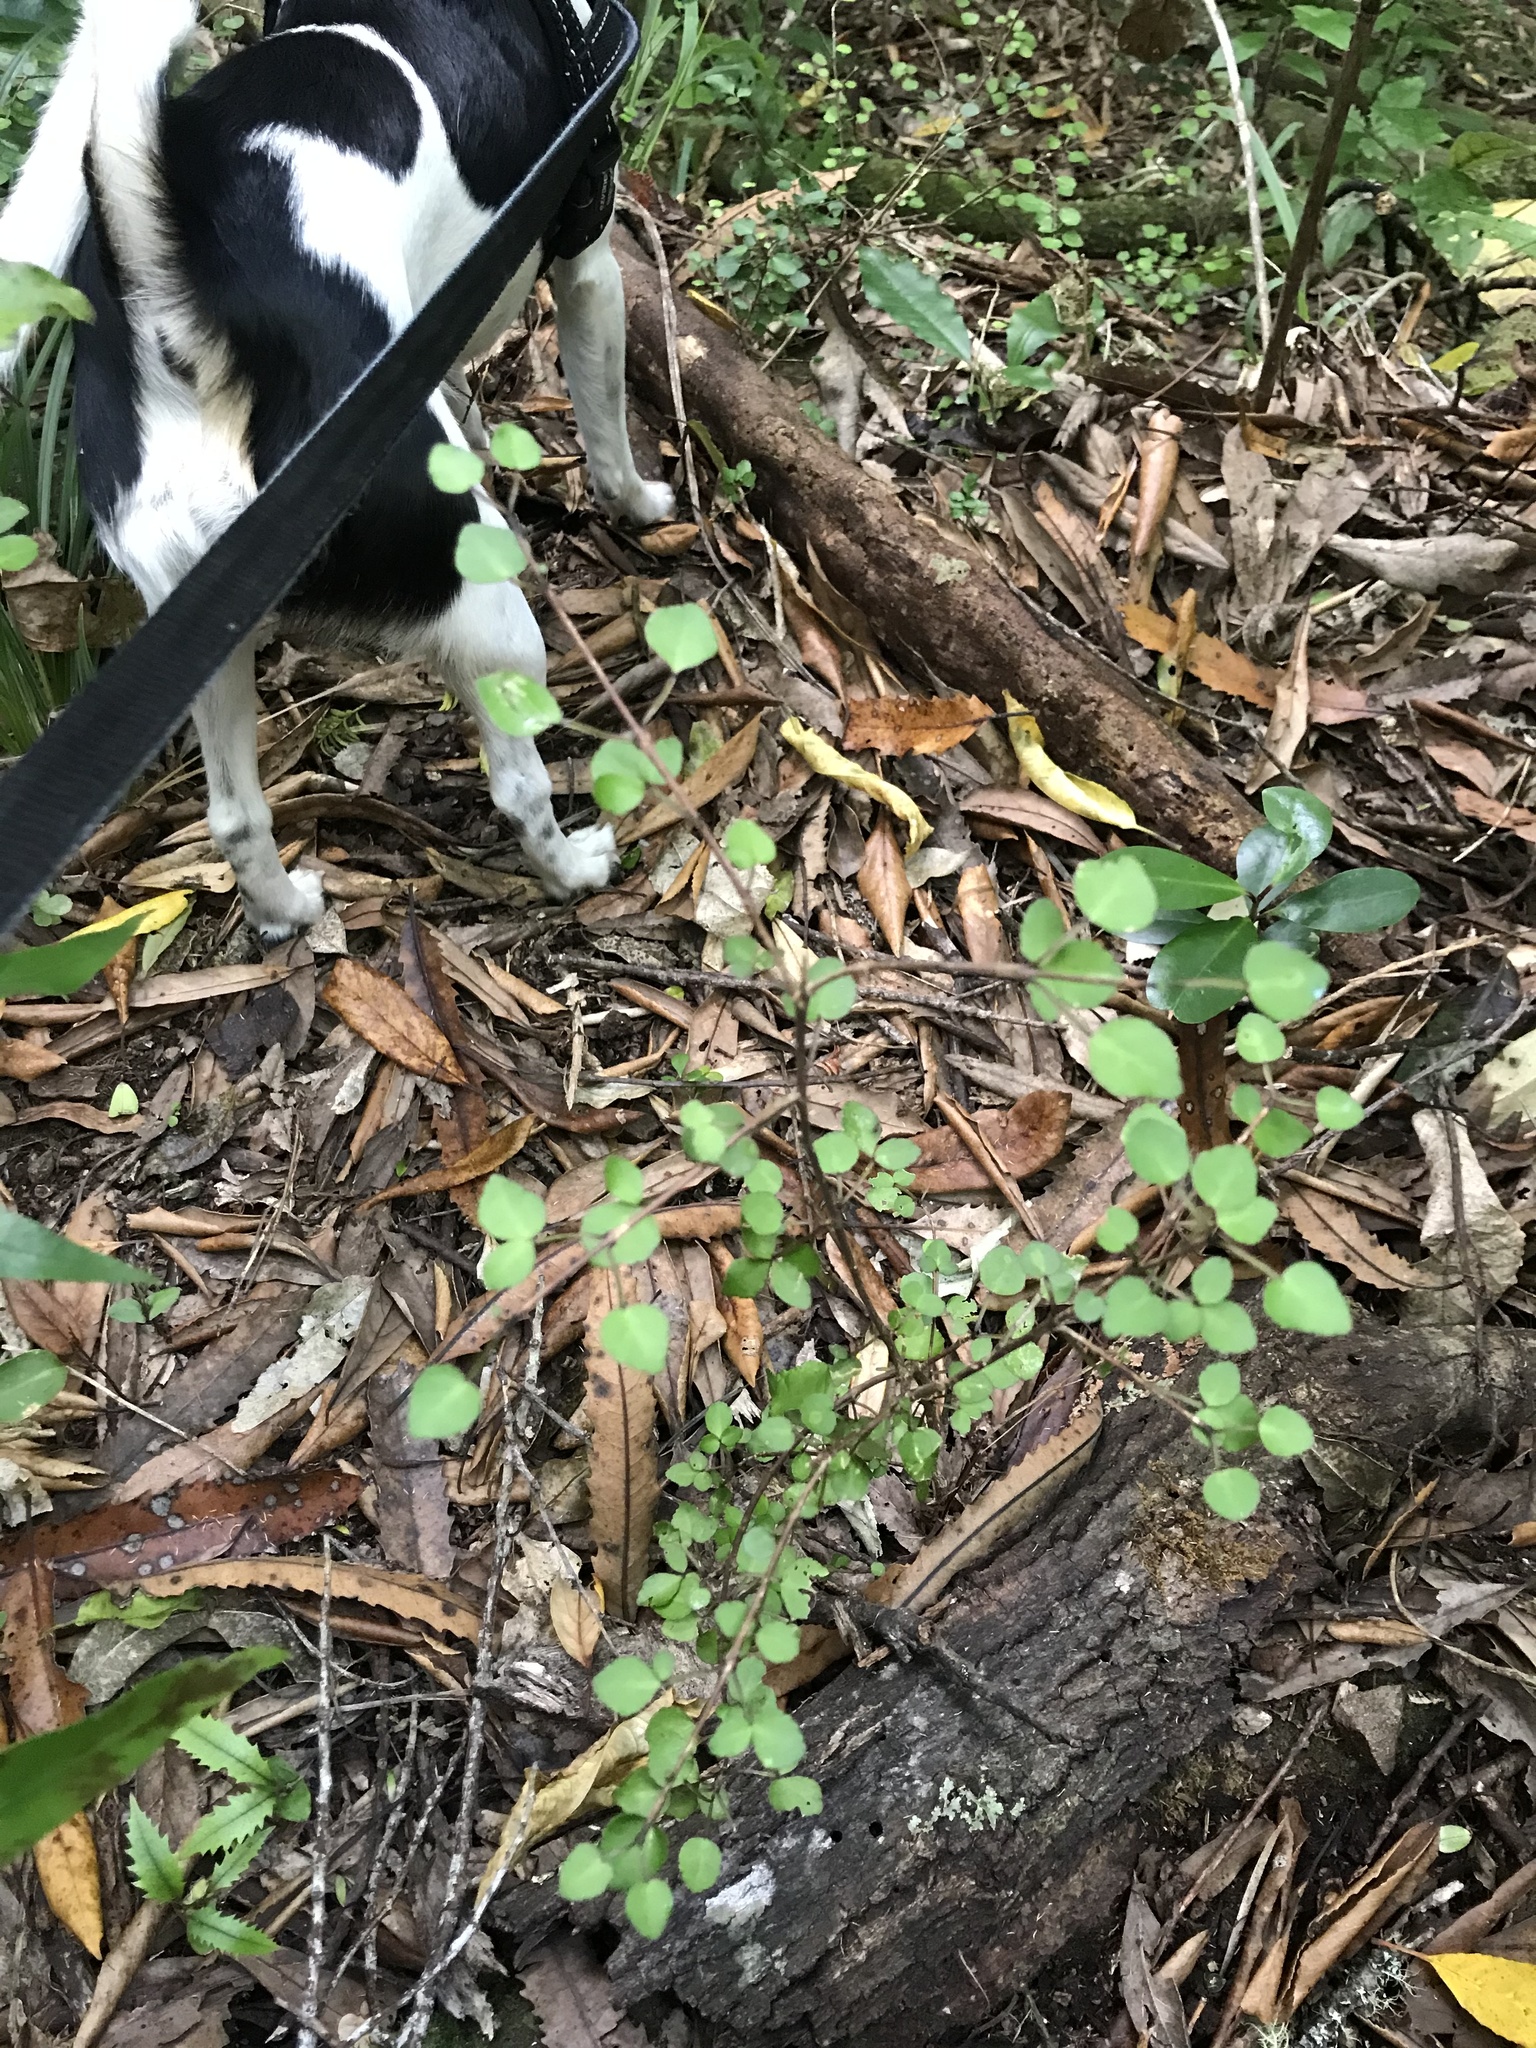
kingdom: Plantae
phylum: Tracheophyta
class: Magnoliopsida
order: Sapindales
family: Rutaceae
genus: Melicope
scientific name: Melicope simplex
